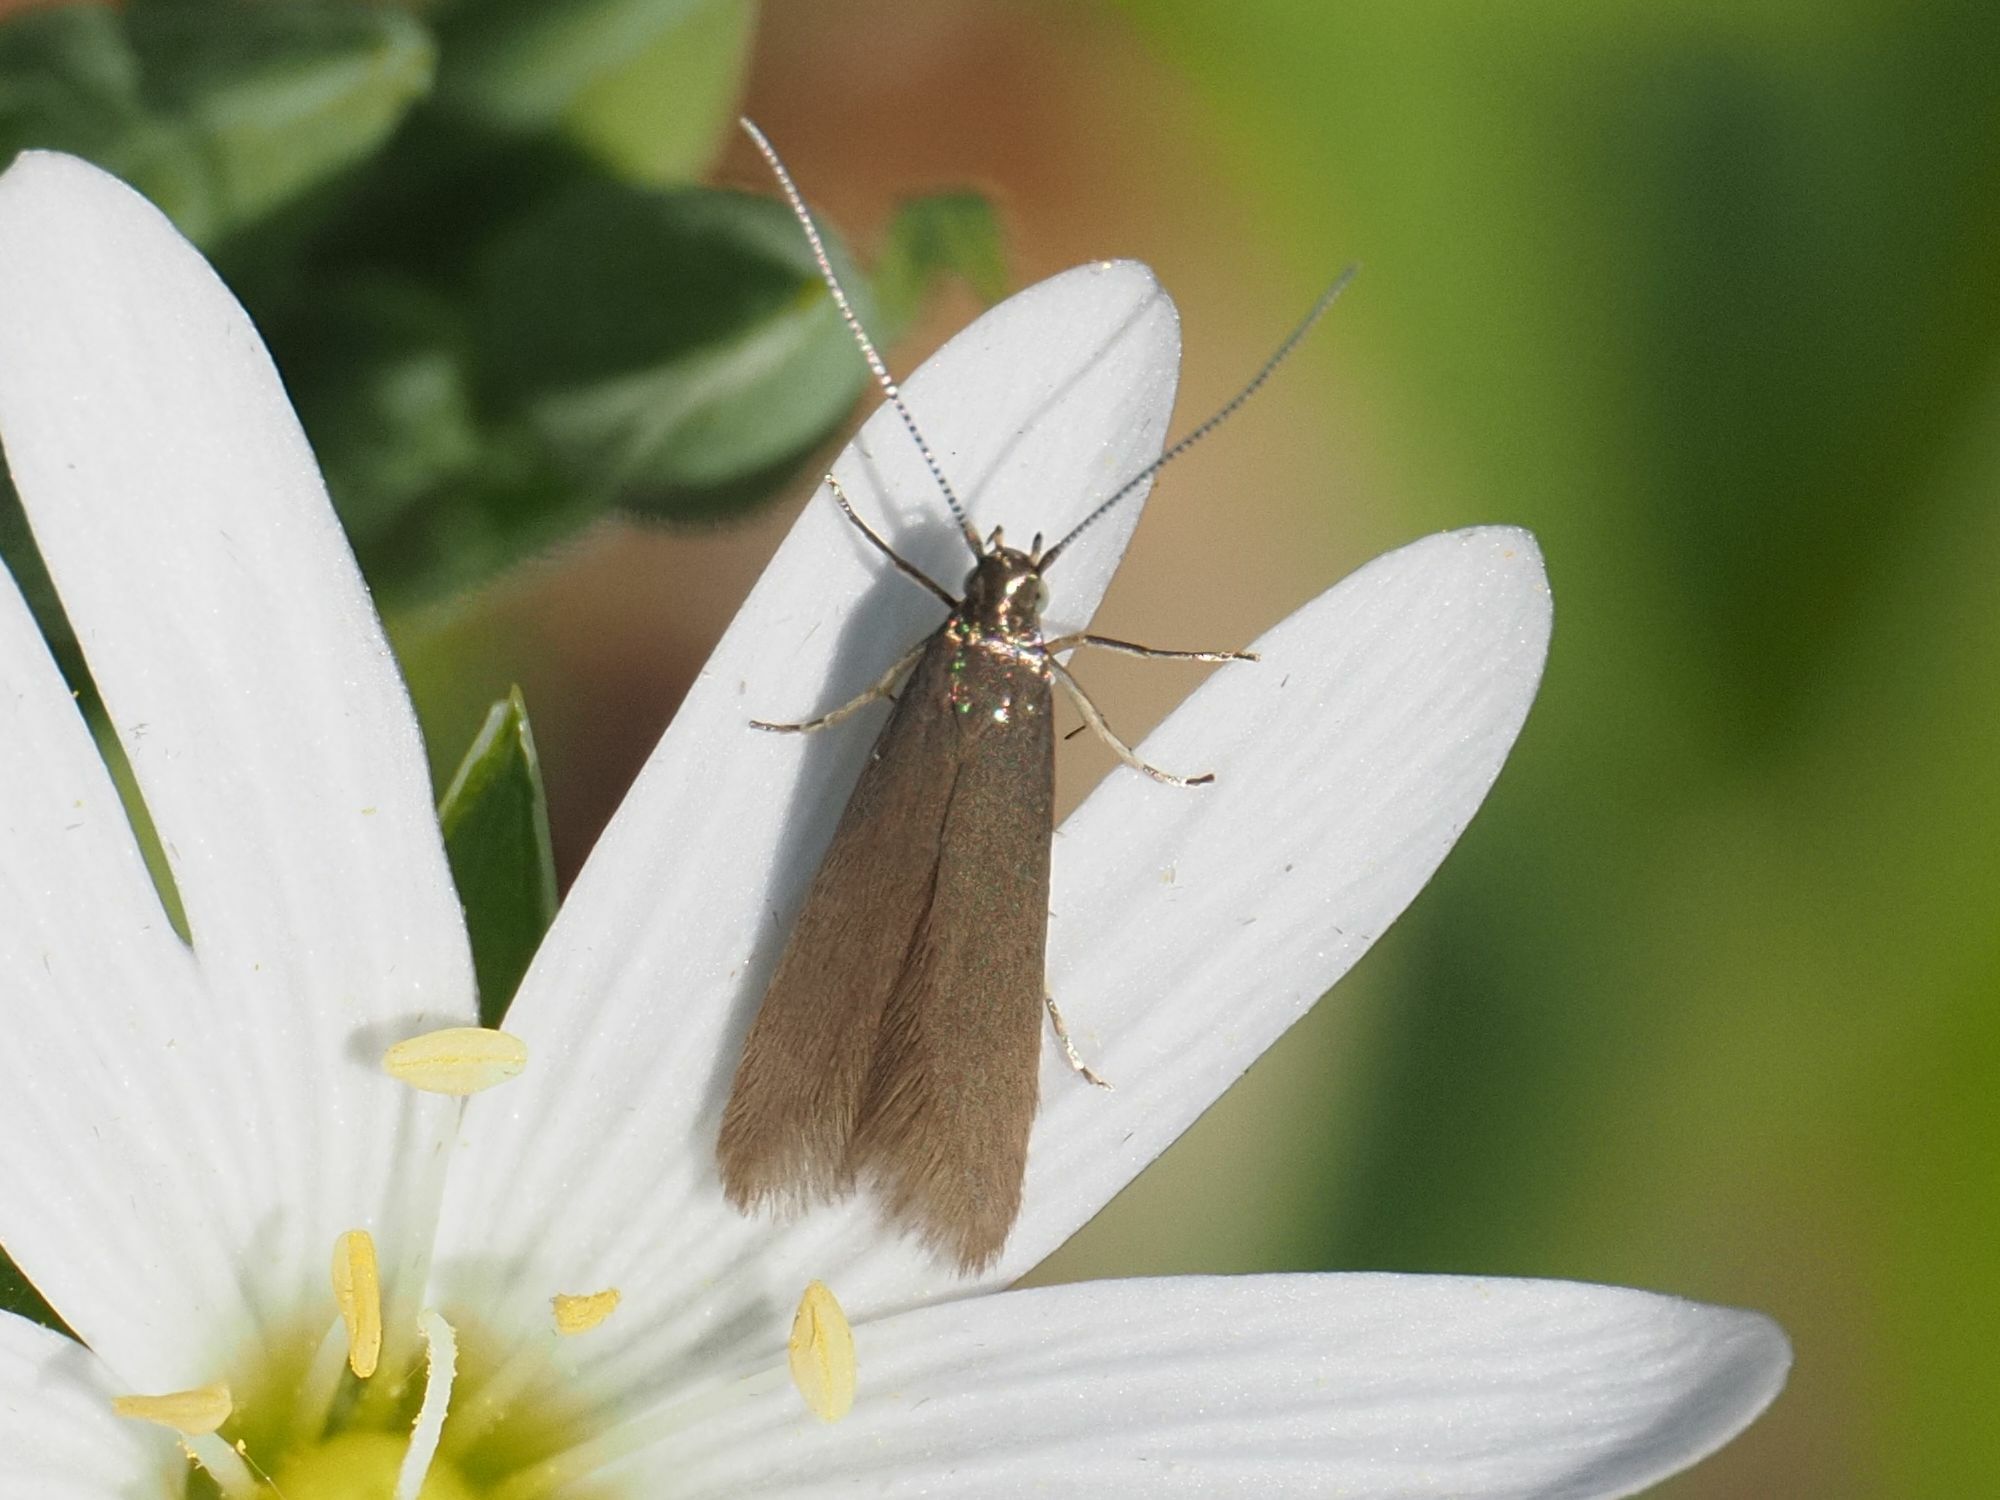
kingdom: Animalia
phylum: Arthropoda
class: Insecta
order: Lepidoptera
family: Coleophoridae
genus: Metriotes
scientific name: Metriotes lutarea
